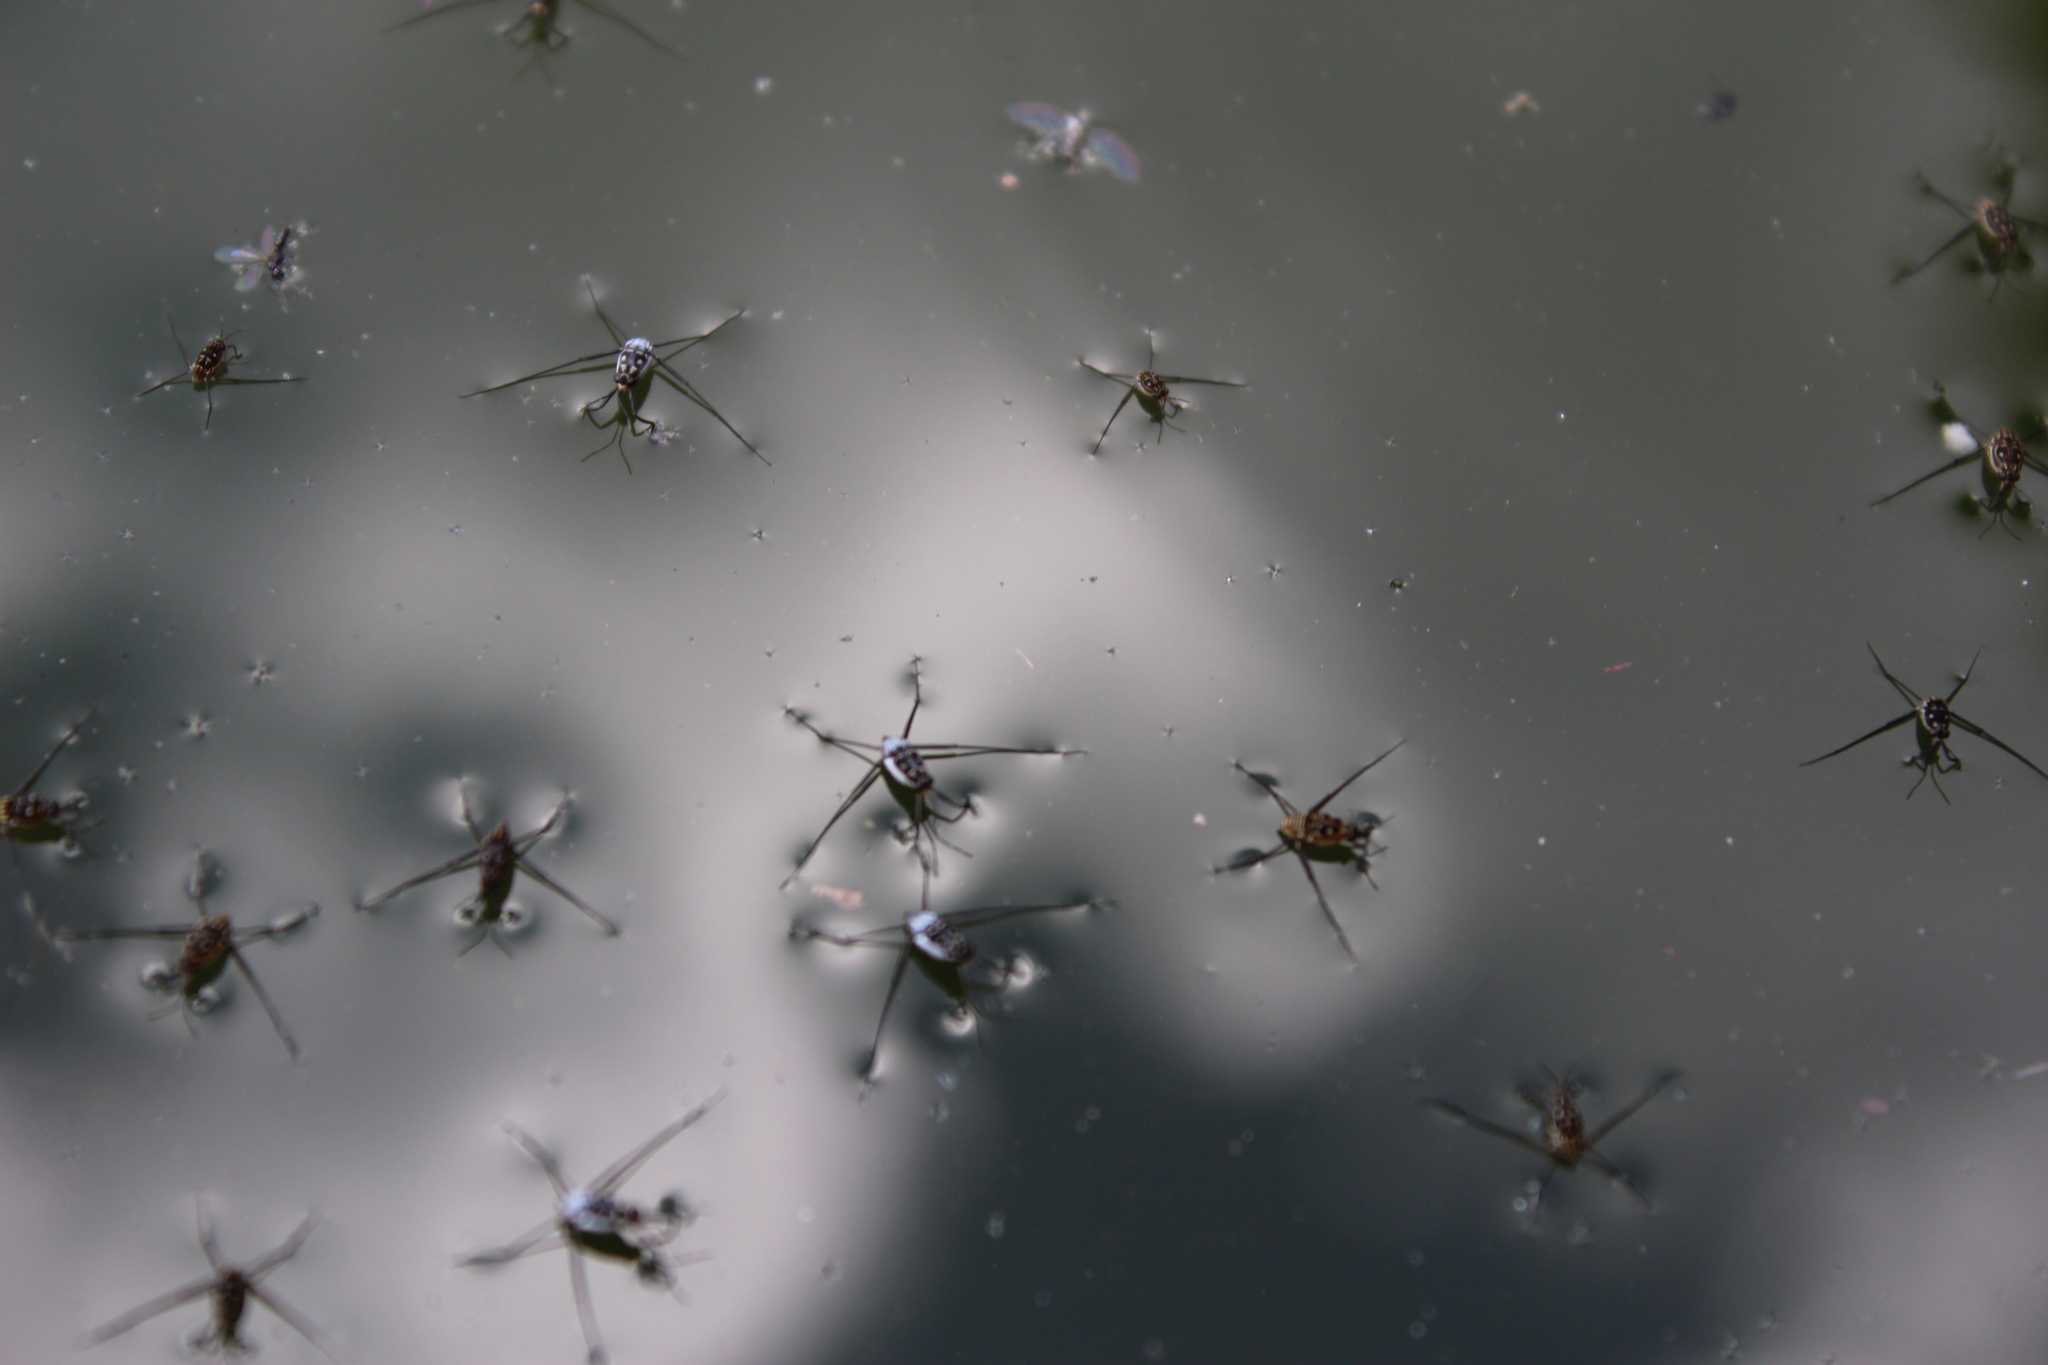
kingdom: Animalia
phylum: Arthropoda
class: Insecta
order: Hemiptera
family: Gerridae
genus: Trepobates
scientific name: Trepobates subnitidus
